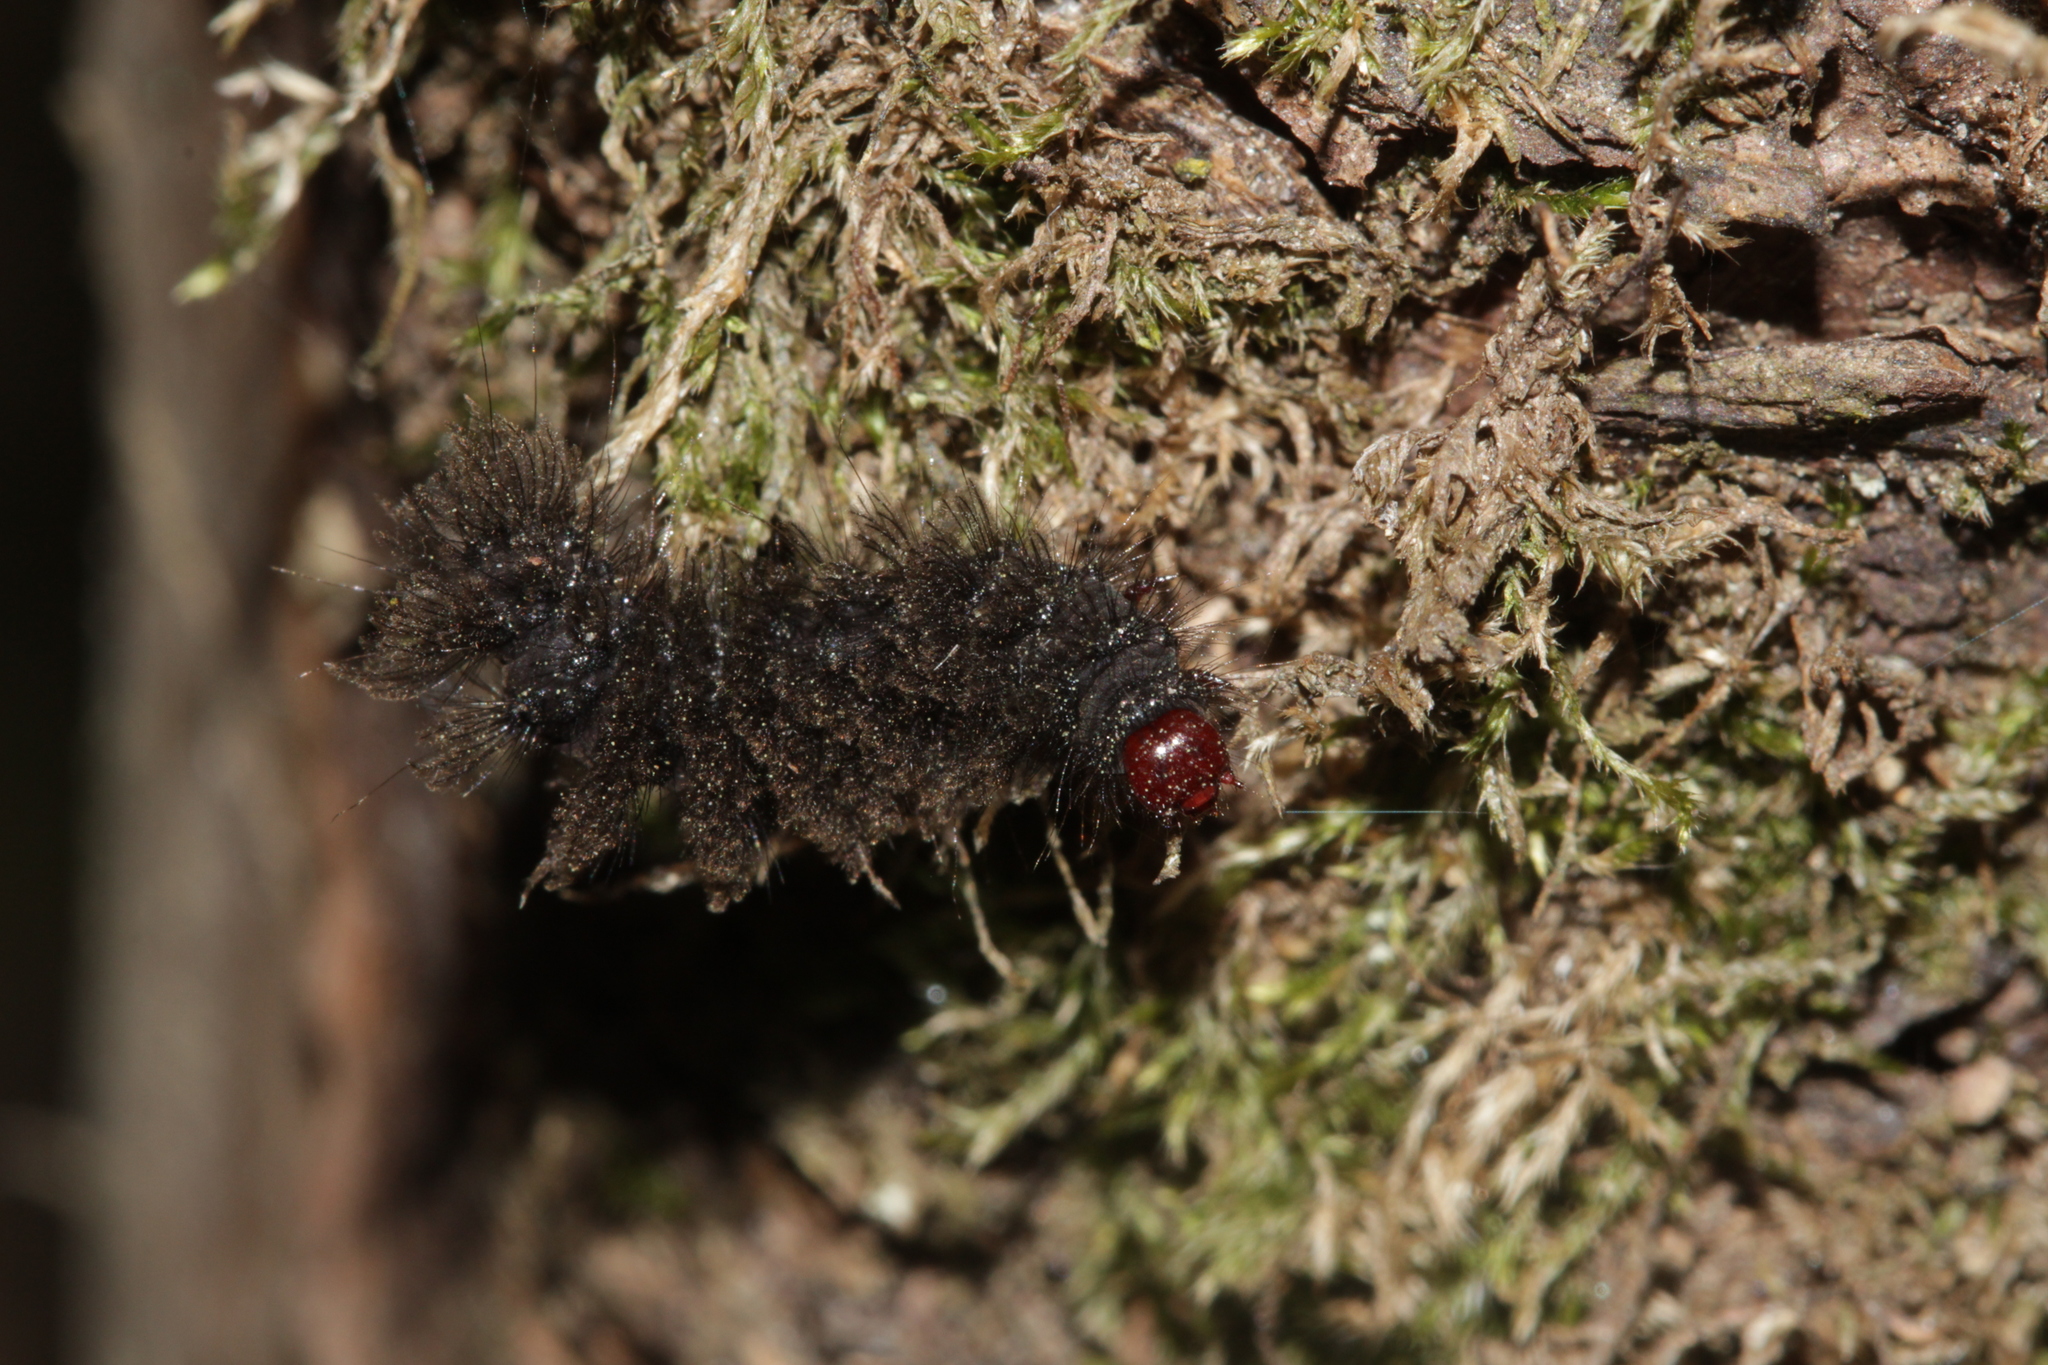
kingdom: Animalia
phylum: Arthropoda
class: Insecta
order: Lepidoptera
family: Erebidae
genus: Amata
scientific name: Amata phegea
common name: Nine-spotted
